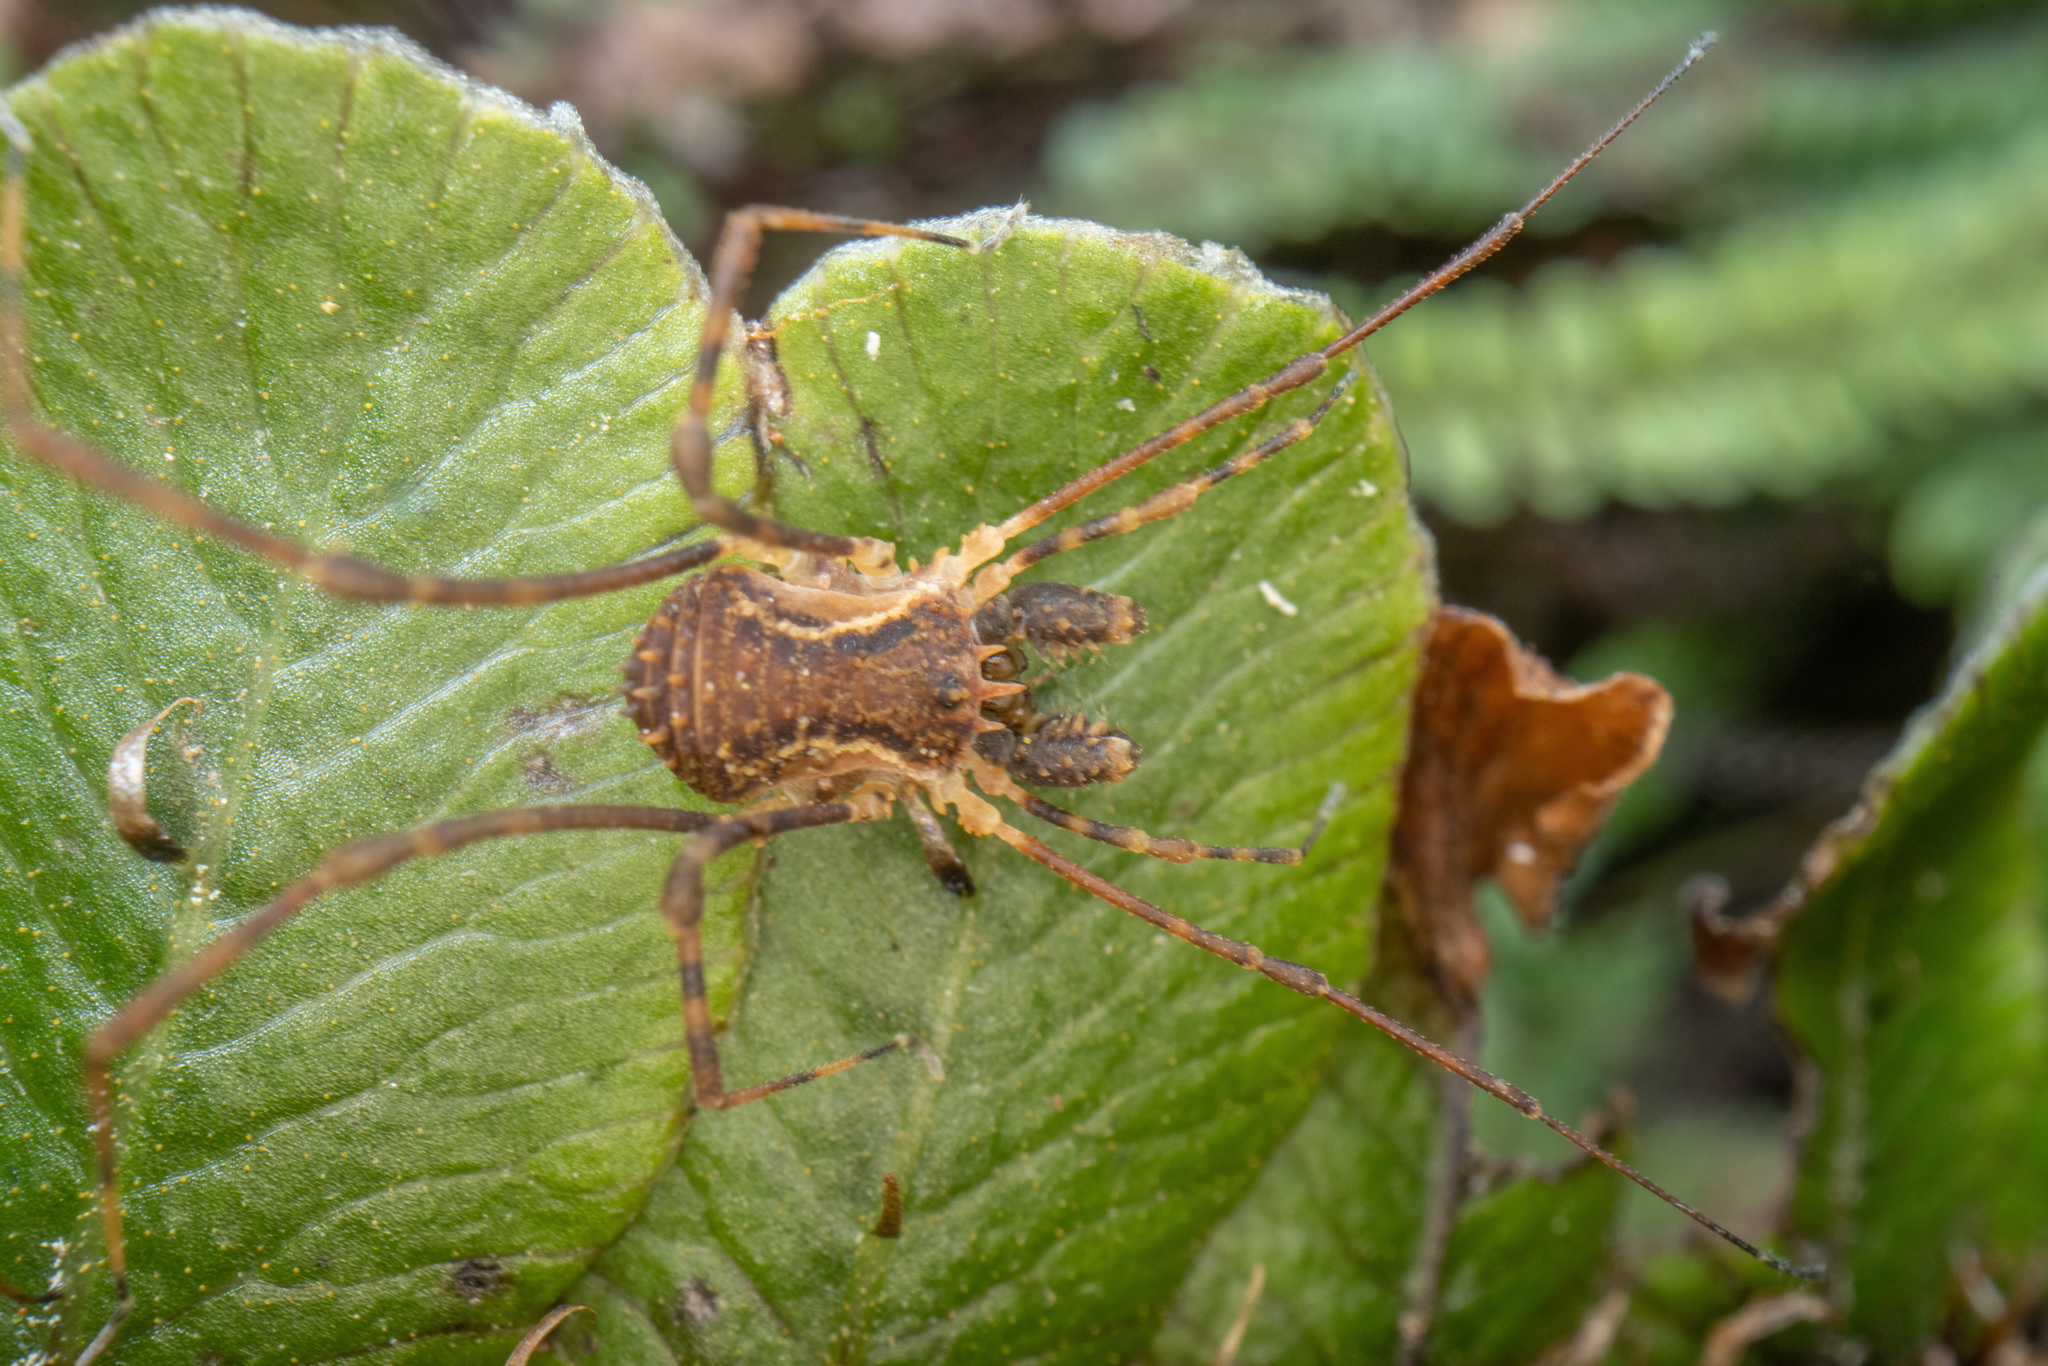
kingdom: Animalia
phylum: Arthropoda
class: Arachnida
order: Opiliones
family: Triaenonychidae
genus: Algidia
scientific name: Algidia chiltoni
